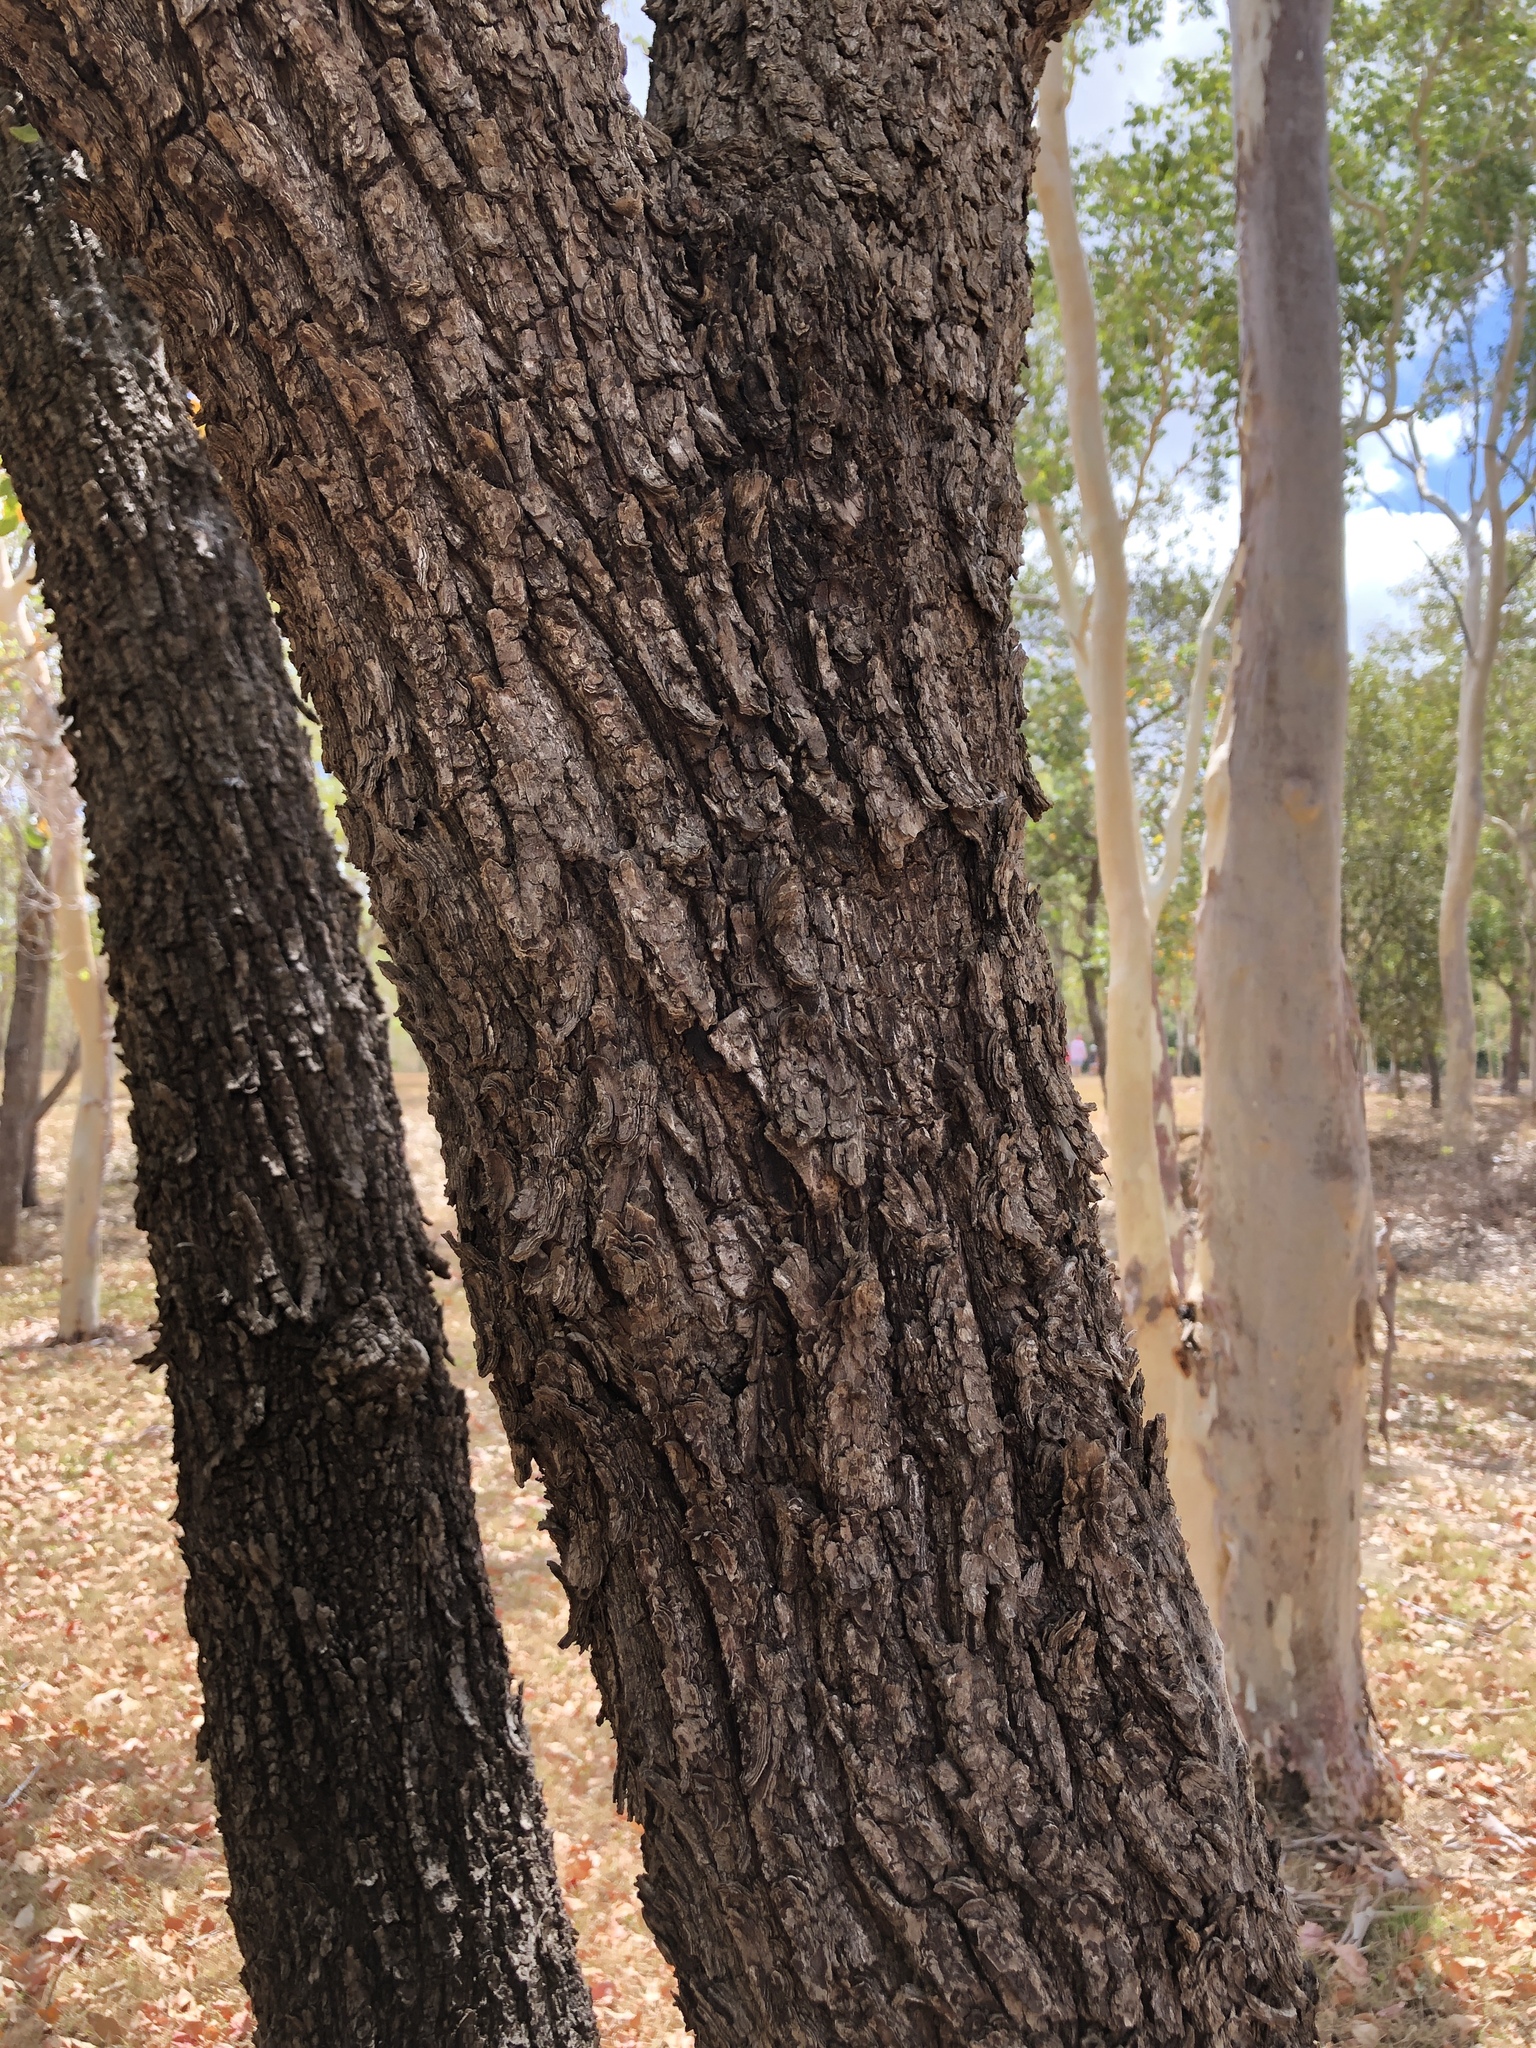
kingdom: Plantae
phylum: Tracheophyta
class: Magnoliopsida
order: Ericales
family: Lecythidaceae
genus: Planchonia
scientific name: Planchonia careya
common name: Cockatoo-apple
